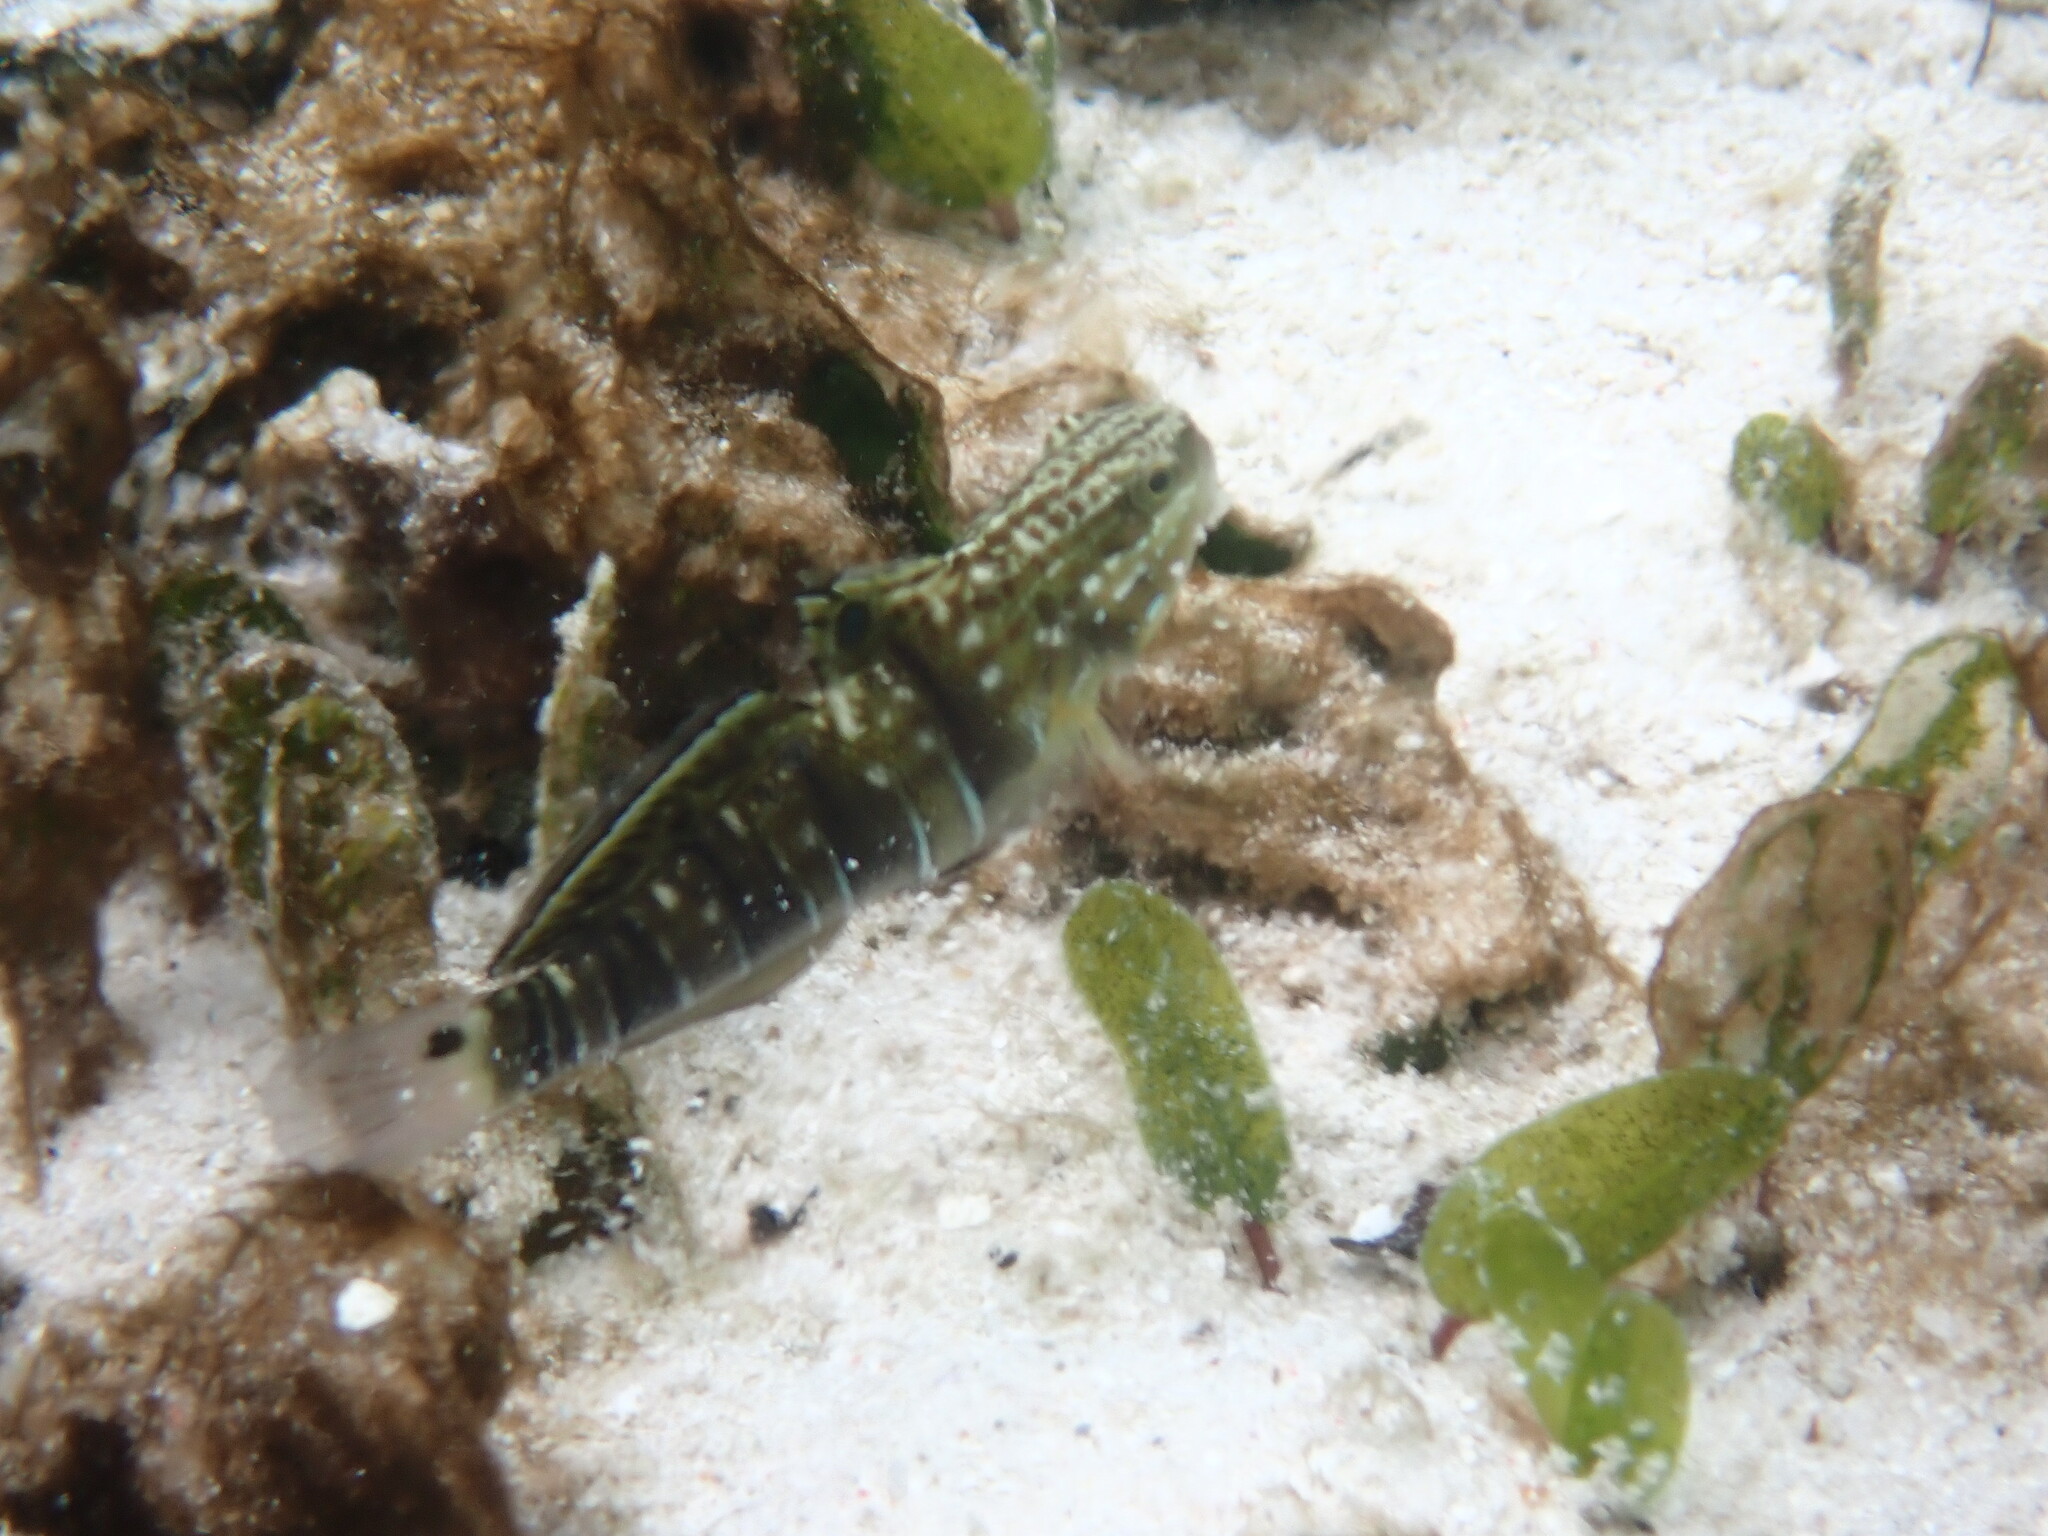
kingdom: Animalia
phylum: Chordata
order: Perciformes
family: Gobiidae
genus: Amblygobius
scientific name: Amblygobius phalaena
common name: Banded goby
